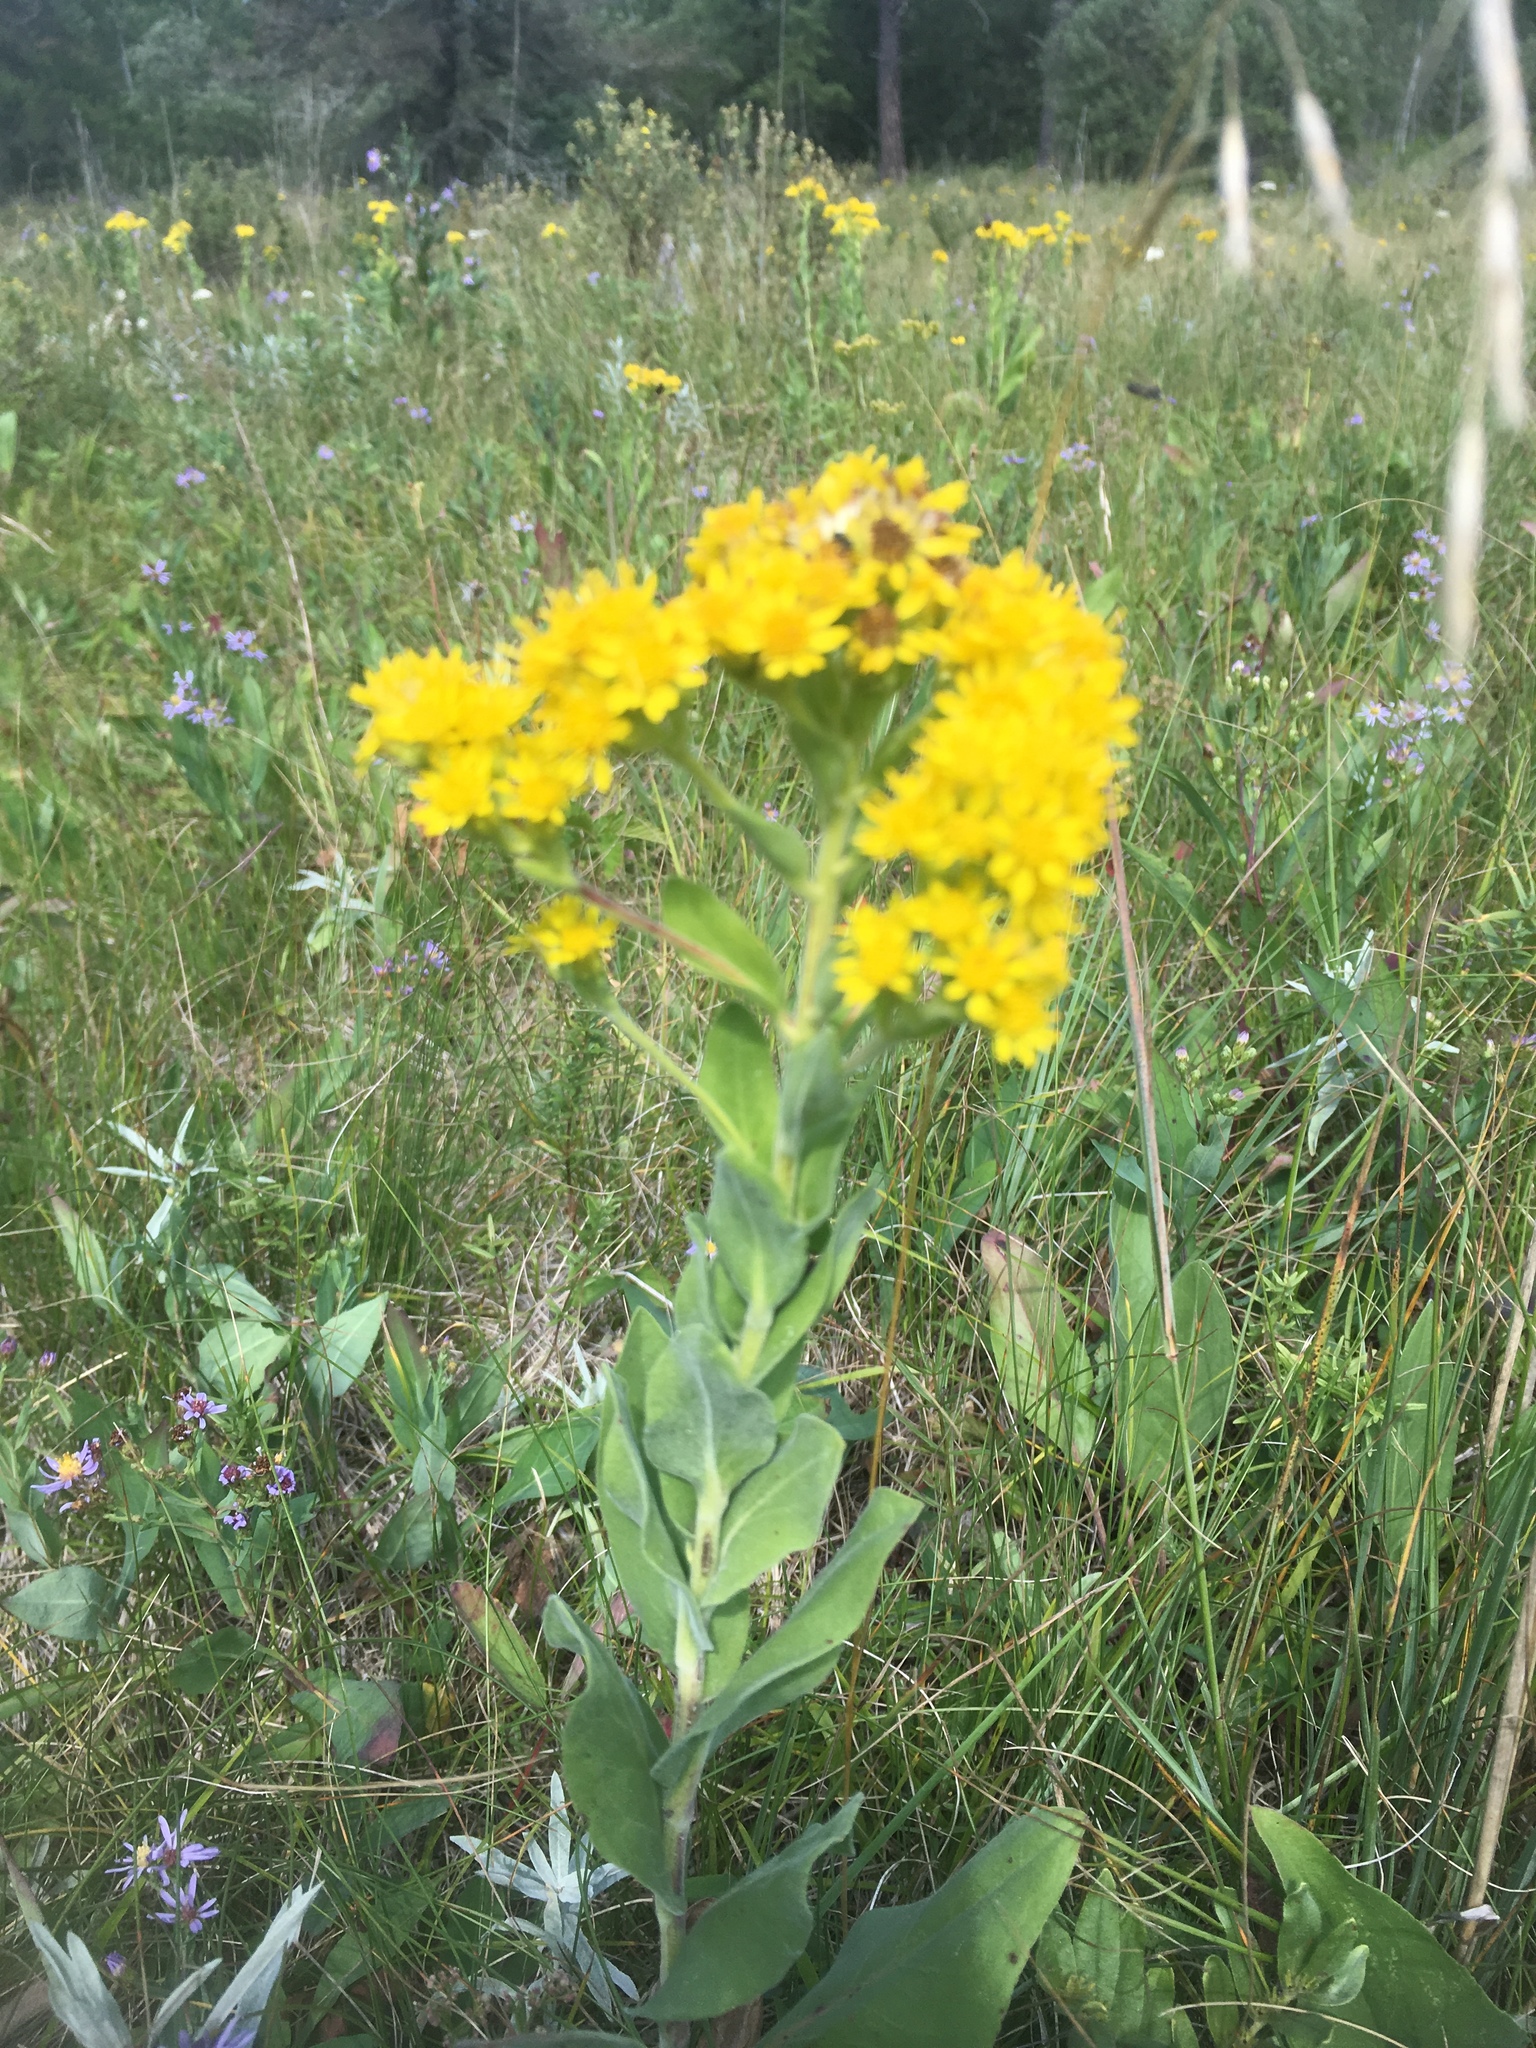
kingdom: Plantae
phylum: Tracheophyta
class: Magnoliopsida
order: Asterales
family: Asteraceae
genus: Solidago
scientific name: Solidago rigida
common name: Rigid goldenrod
